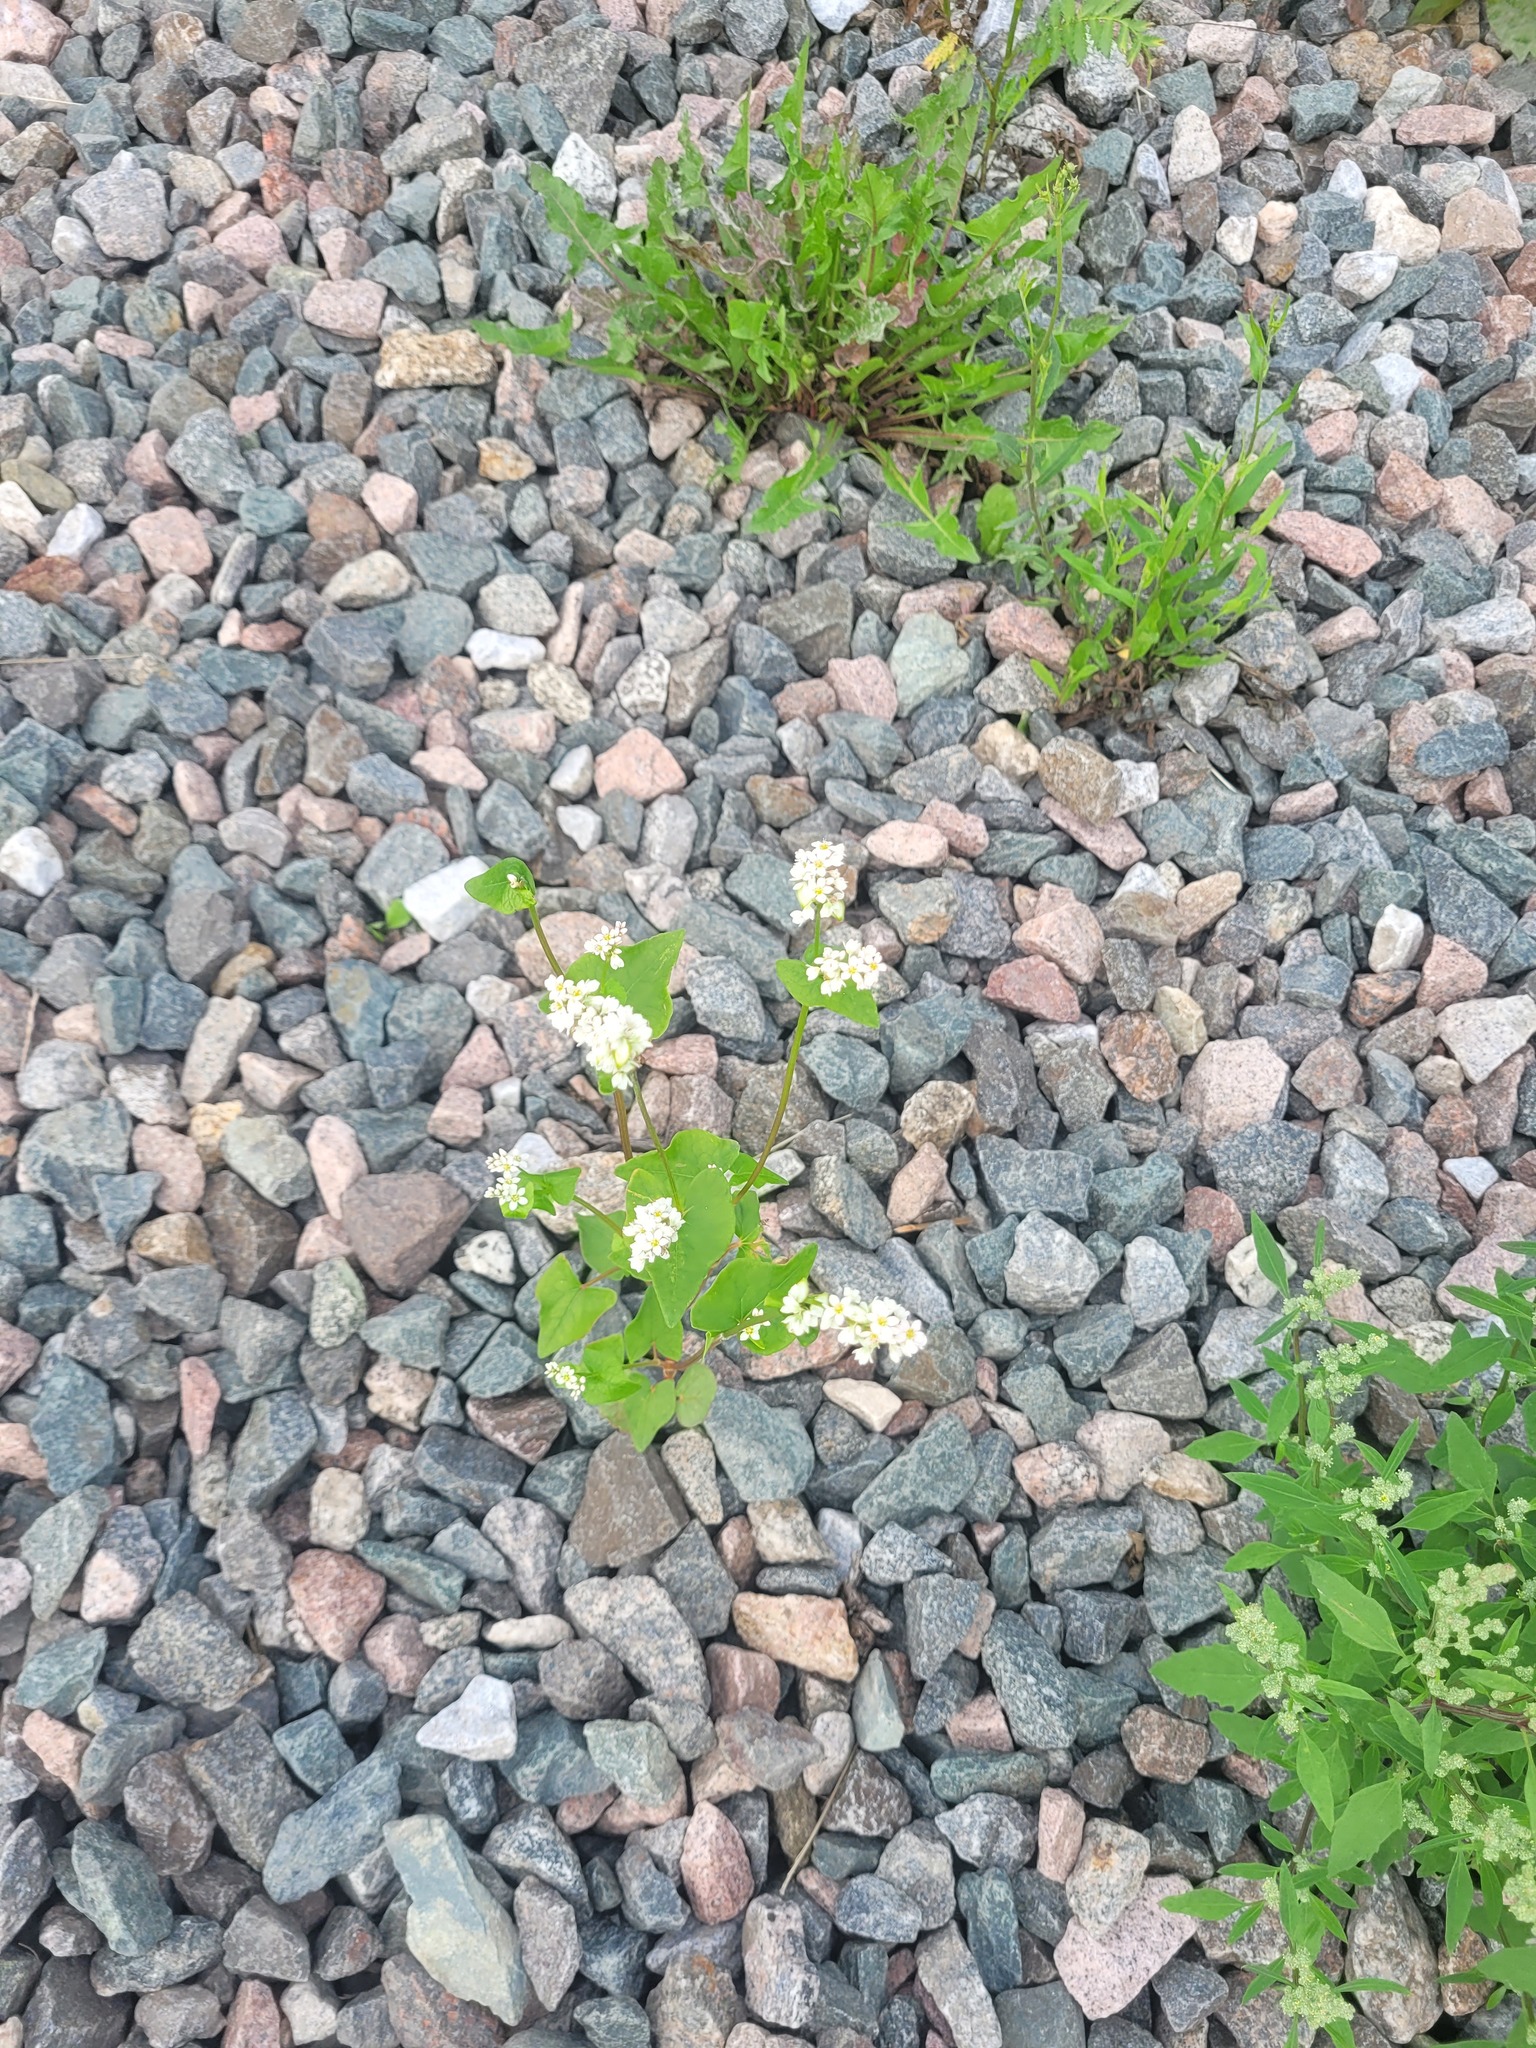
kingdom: Plantae
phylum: Tracheophyta
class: Magnoliopsida
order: Caryophyllales
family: Polygonaceae
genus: Fagopyrum
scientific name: Fagopyrum esculentum
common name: Buckwheat
